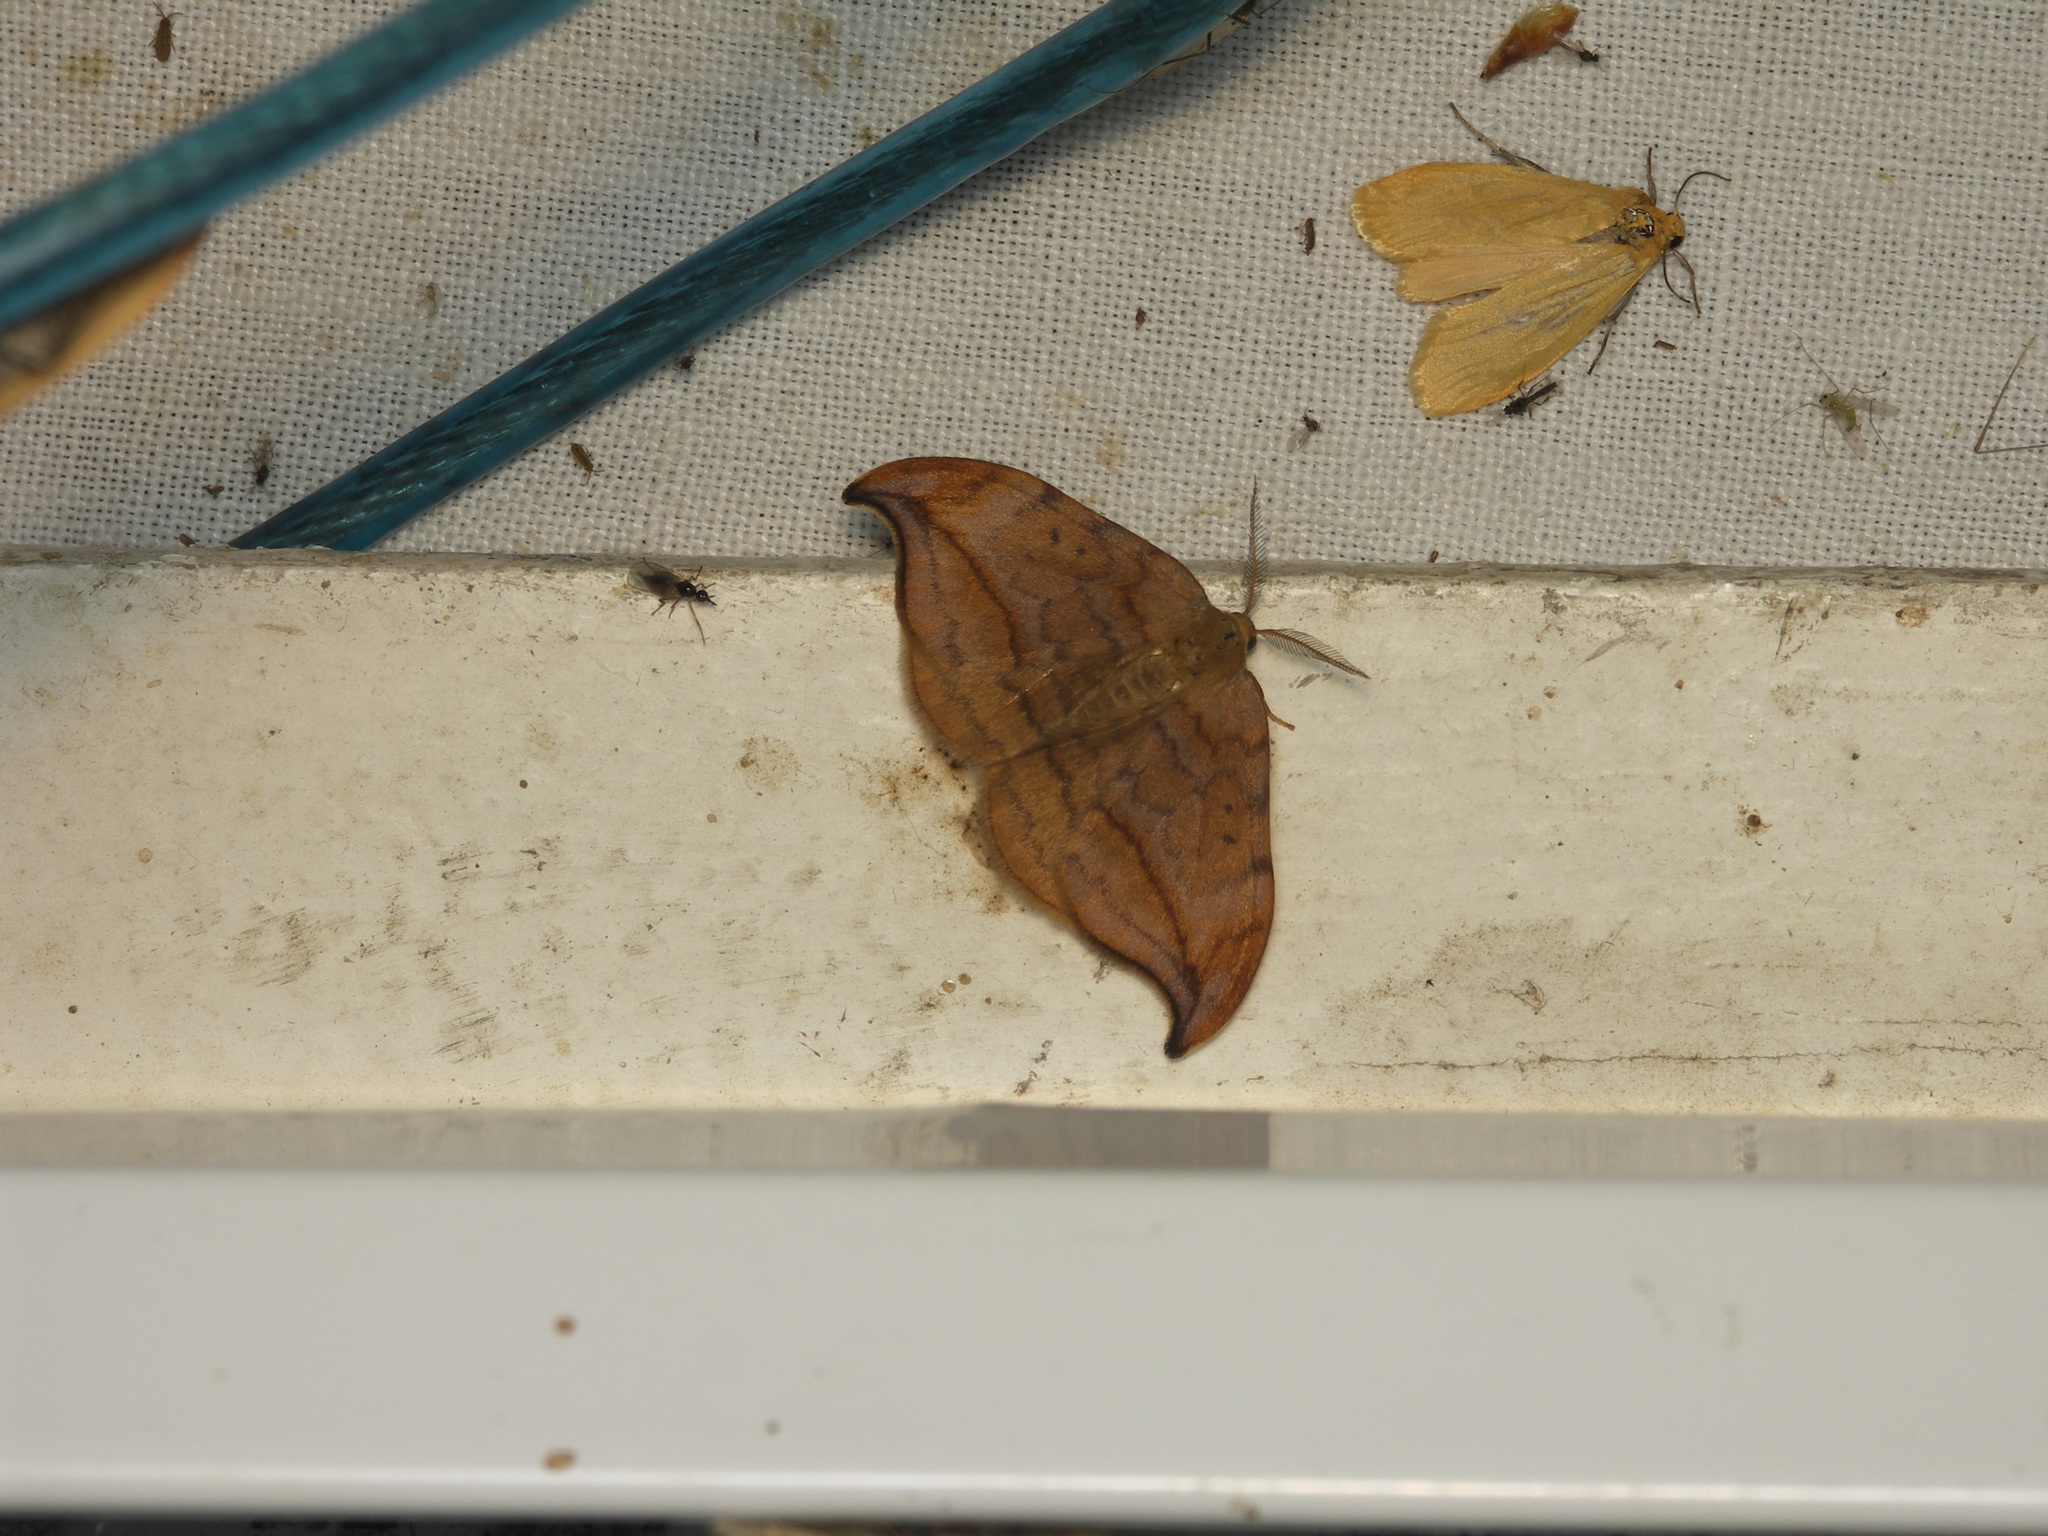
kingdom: Animalia
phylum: Arthropoda
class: Insecta
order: Lepidoptera
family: Drepanidae
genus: Drepana
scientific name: Drepana curvatula
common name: Dusky hook-tip
